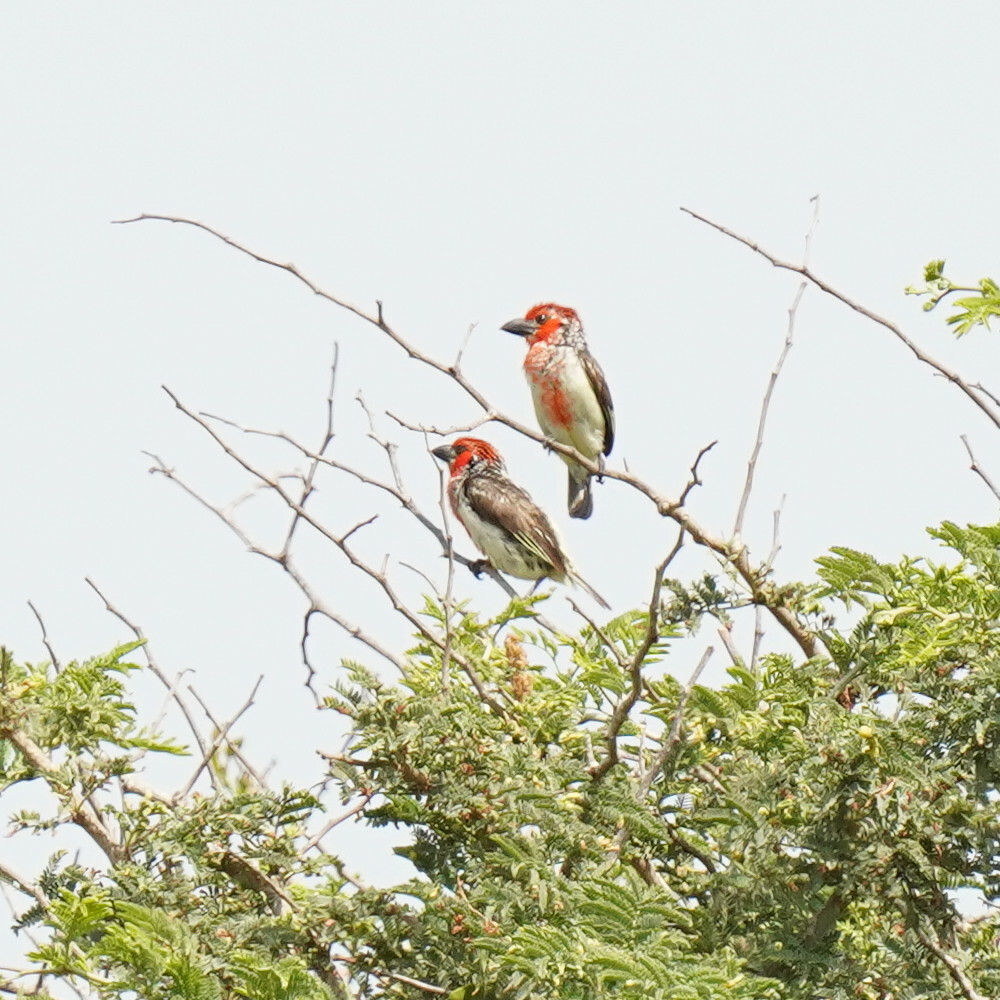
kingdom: Animalia
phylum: Chordata
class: Aves
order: Piciformes
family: Lybiidae
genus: Lybius
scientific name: Lybius vieilloti
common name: Vieillot's barbet
